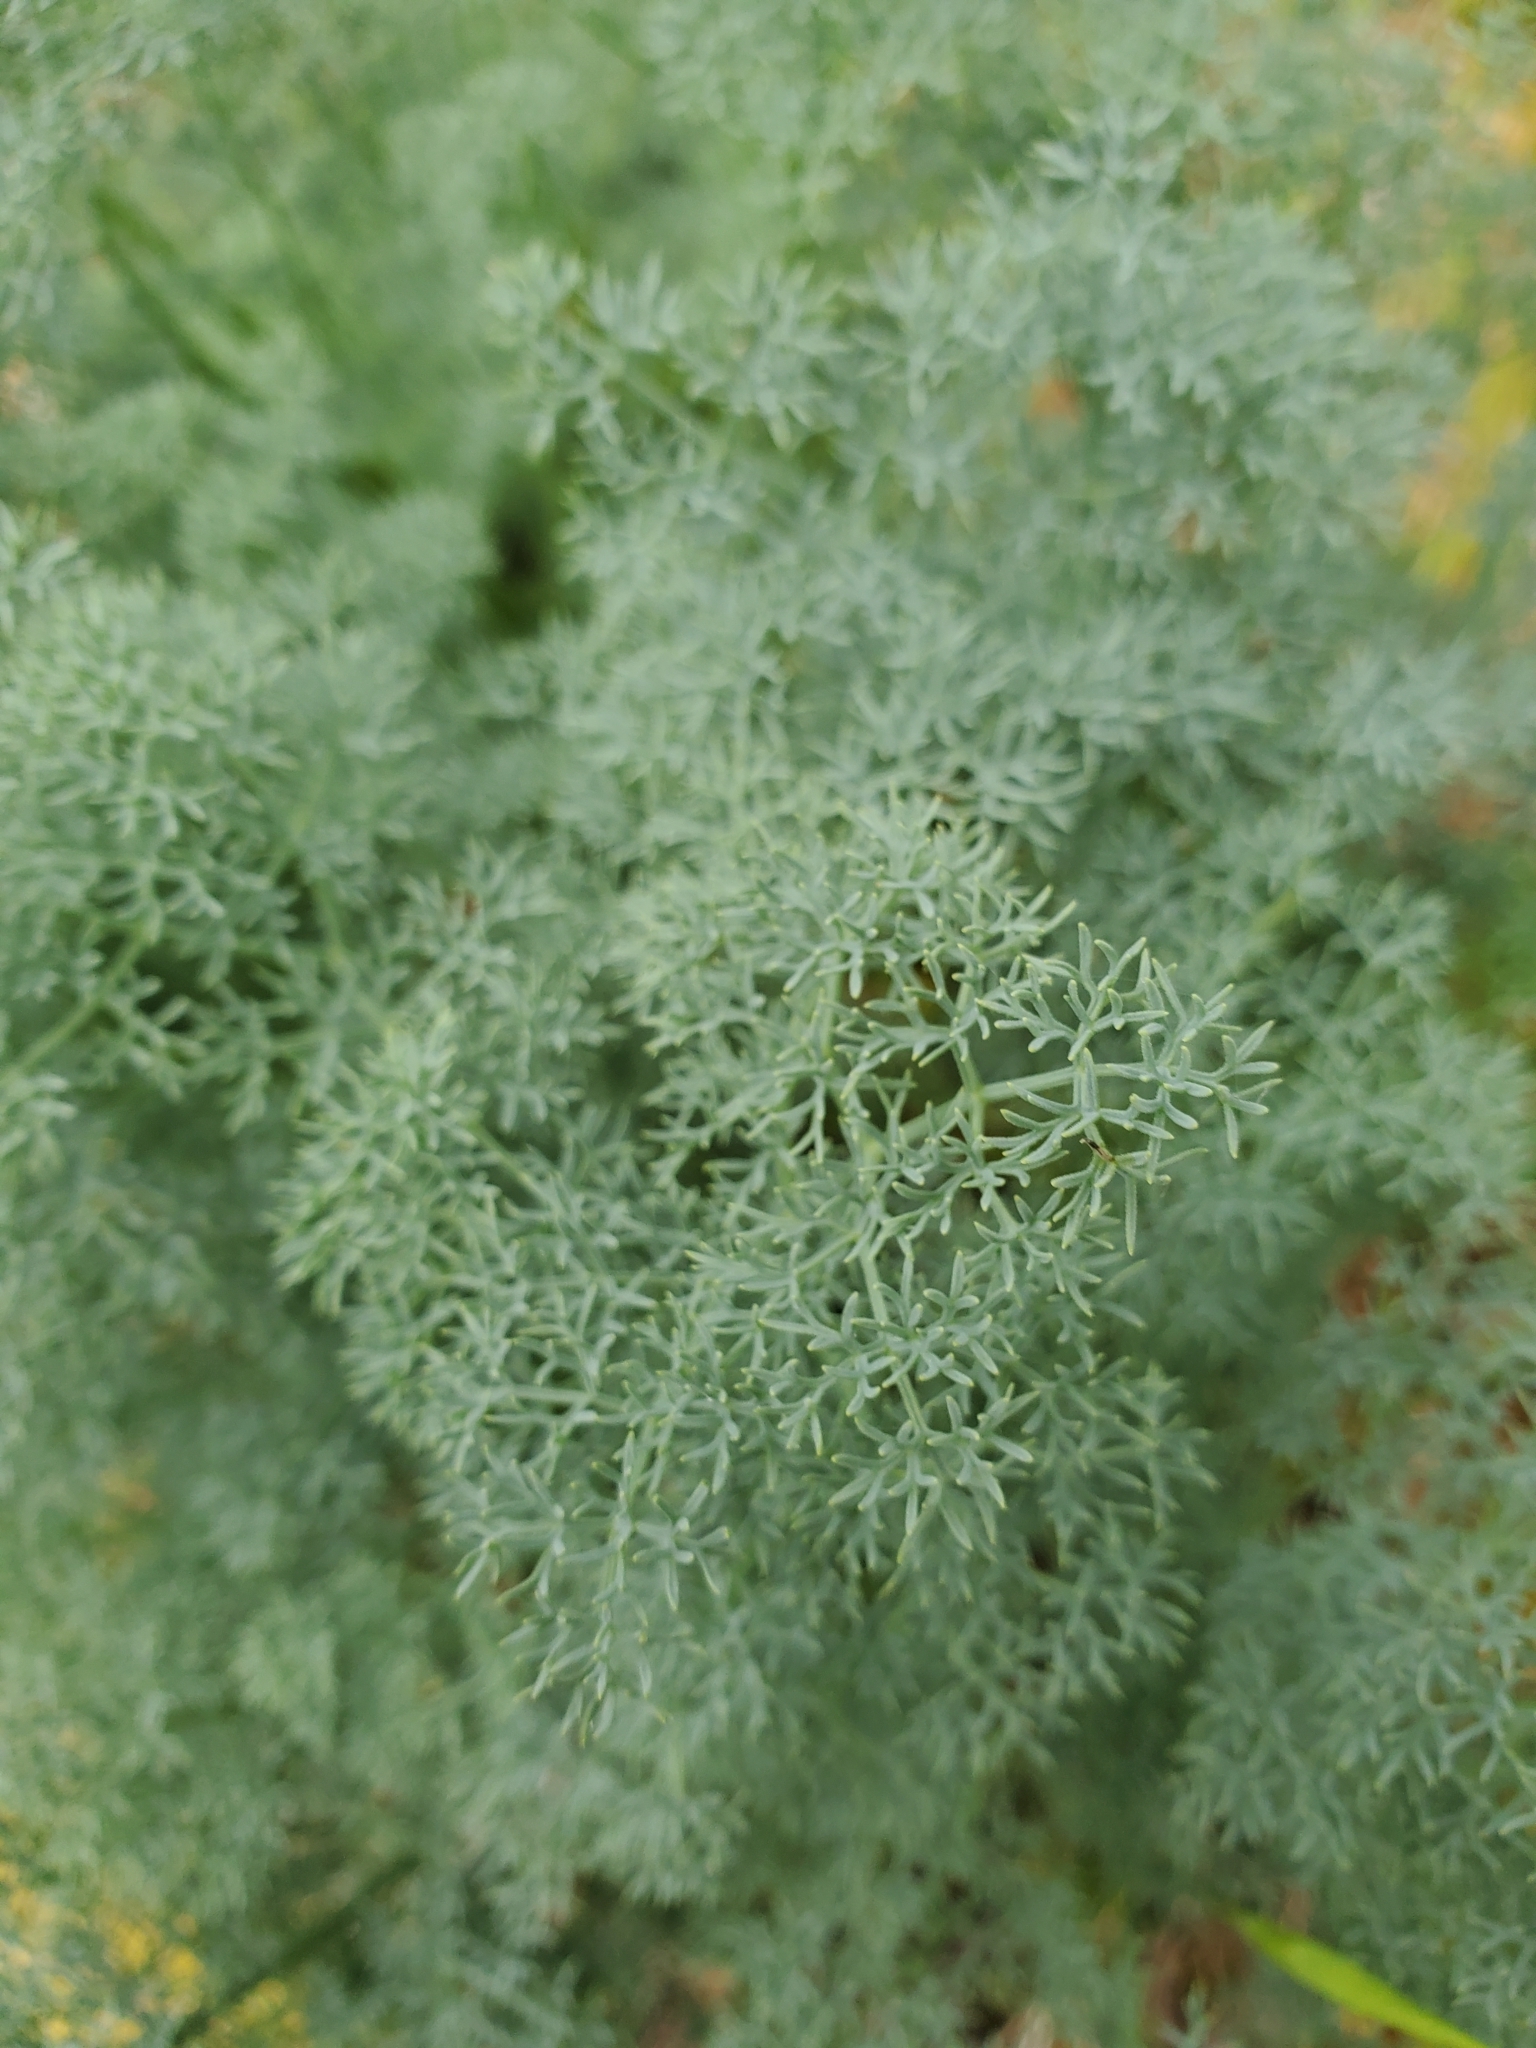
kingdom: Plantae
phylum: Tracheophyta
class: Magnoliopsida
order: Apiales
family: Apiaceae
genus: Lomatium
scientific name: Lomatium papilioniferum
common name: Butterfly lomatium
